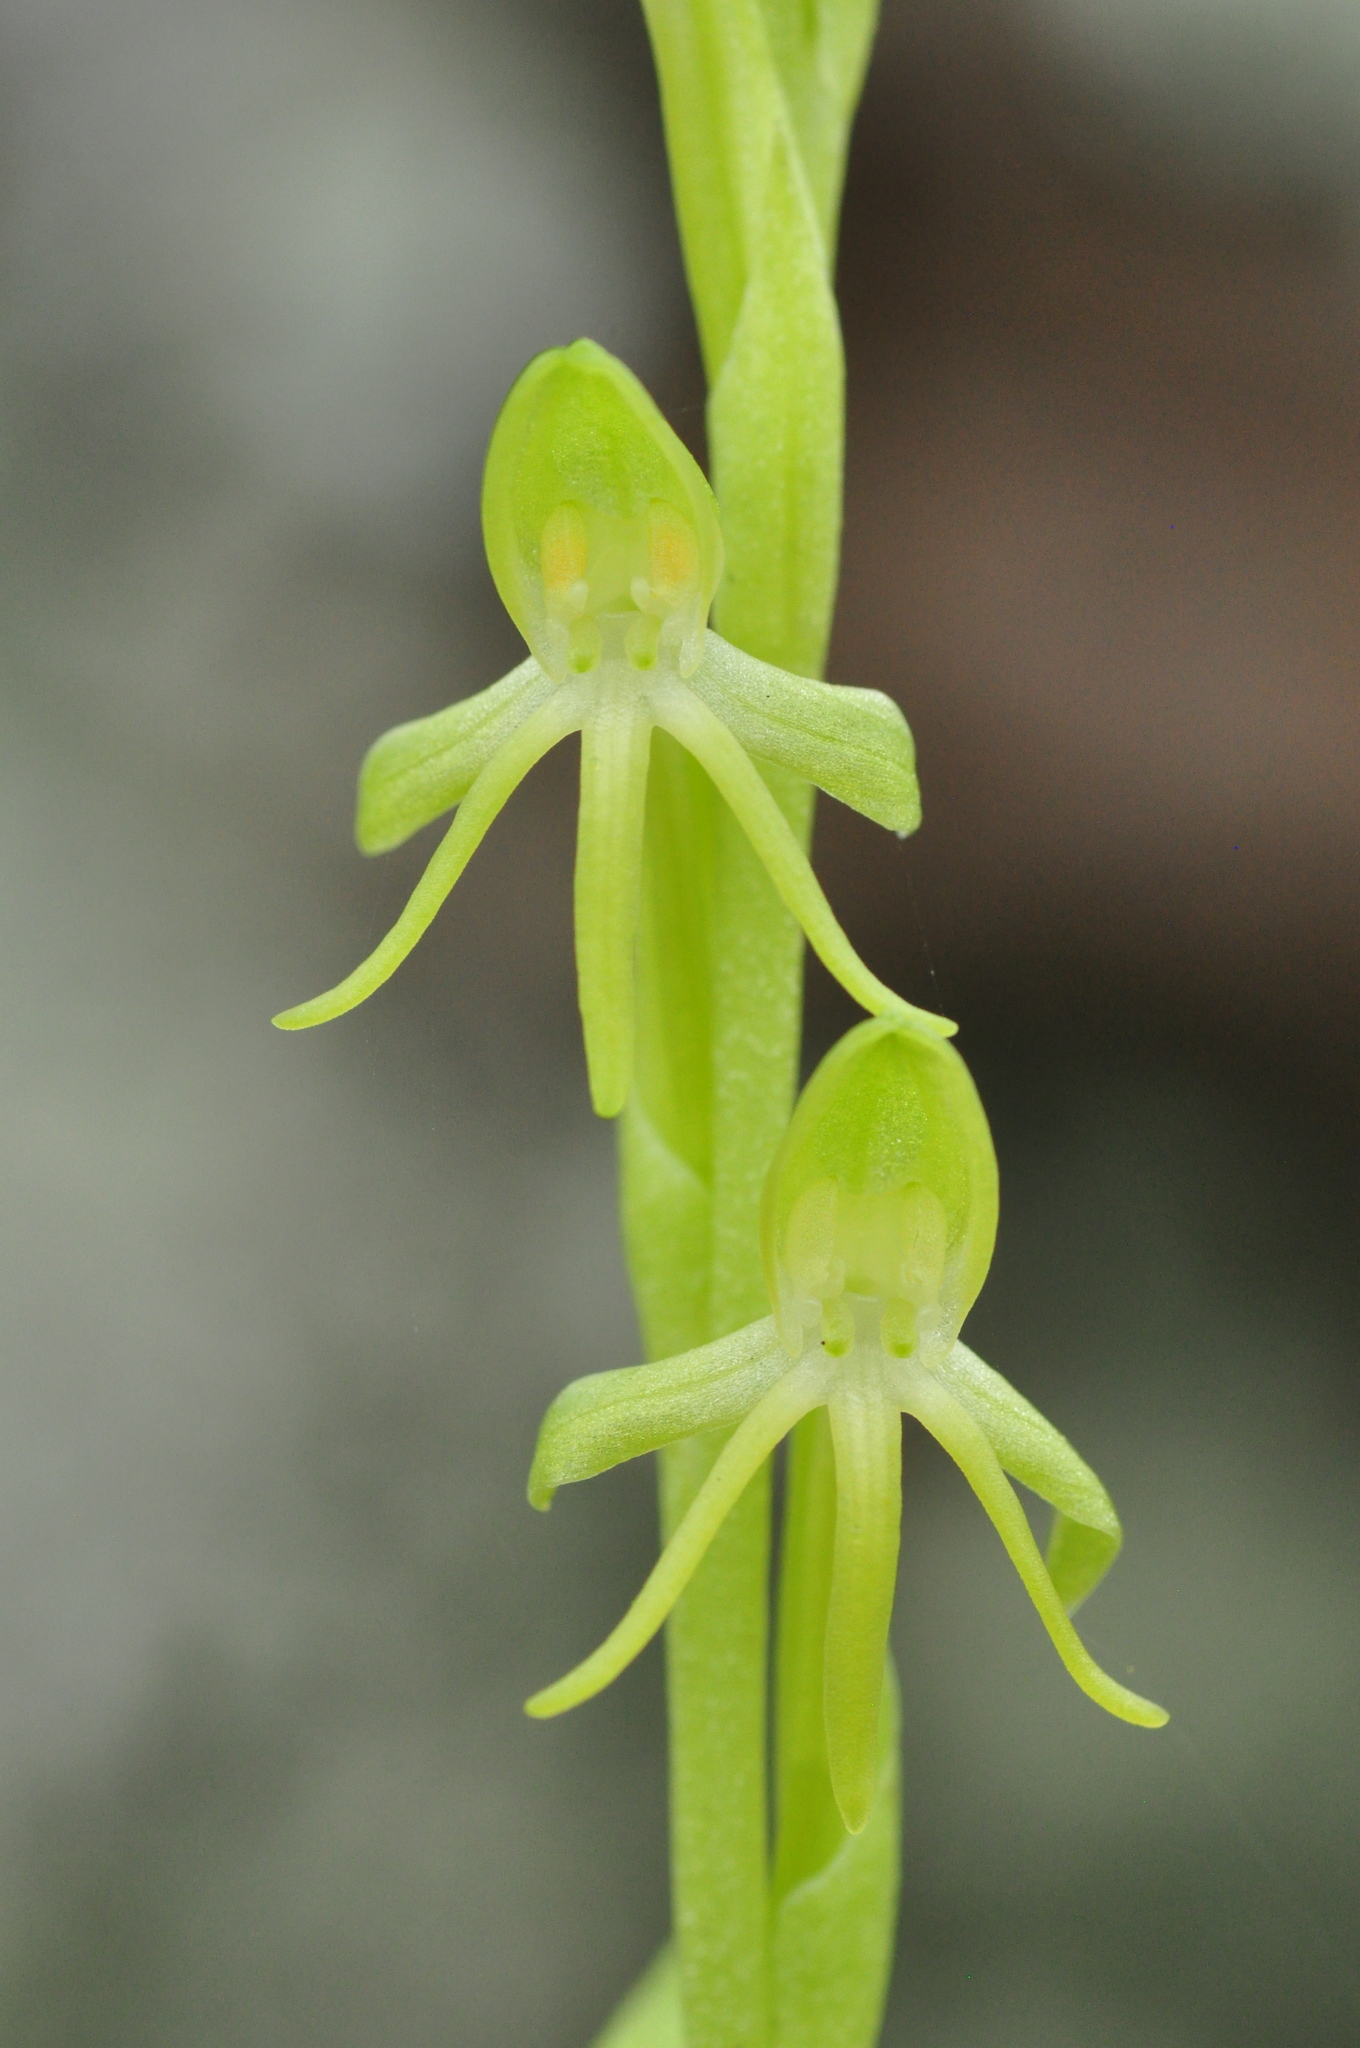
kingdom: Plantae
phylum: Tracheophyta
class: Liliopsida
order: Asparagales
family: Orchidaceae
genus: Habenaria
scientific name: Habenaria tridactylites
